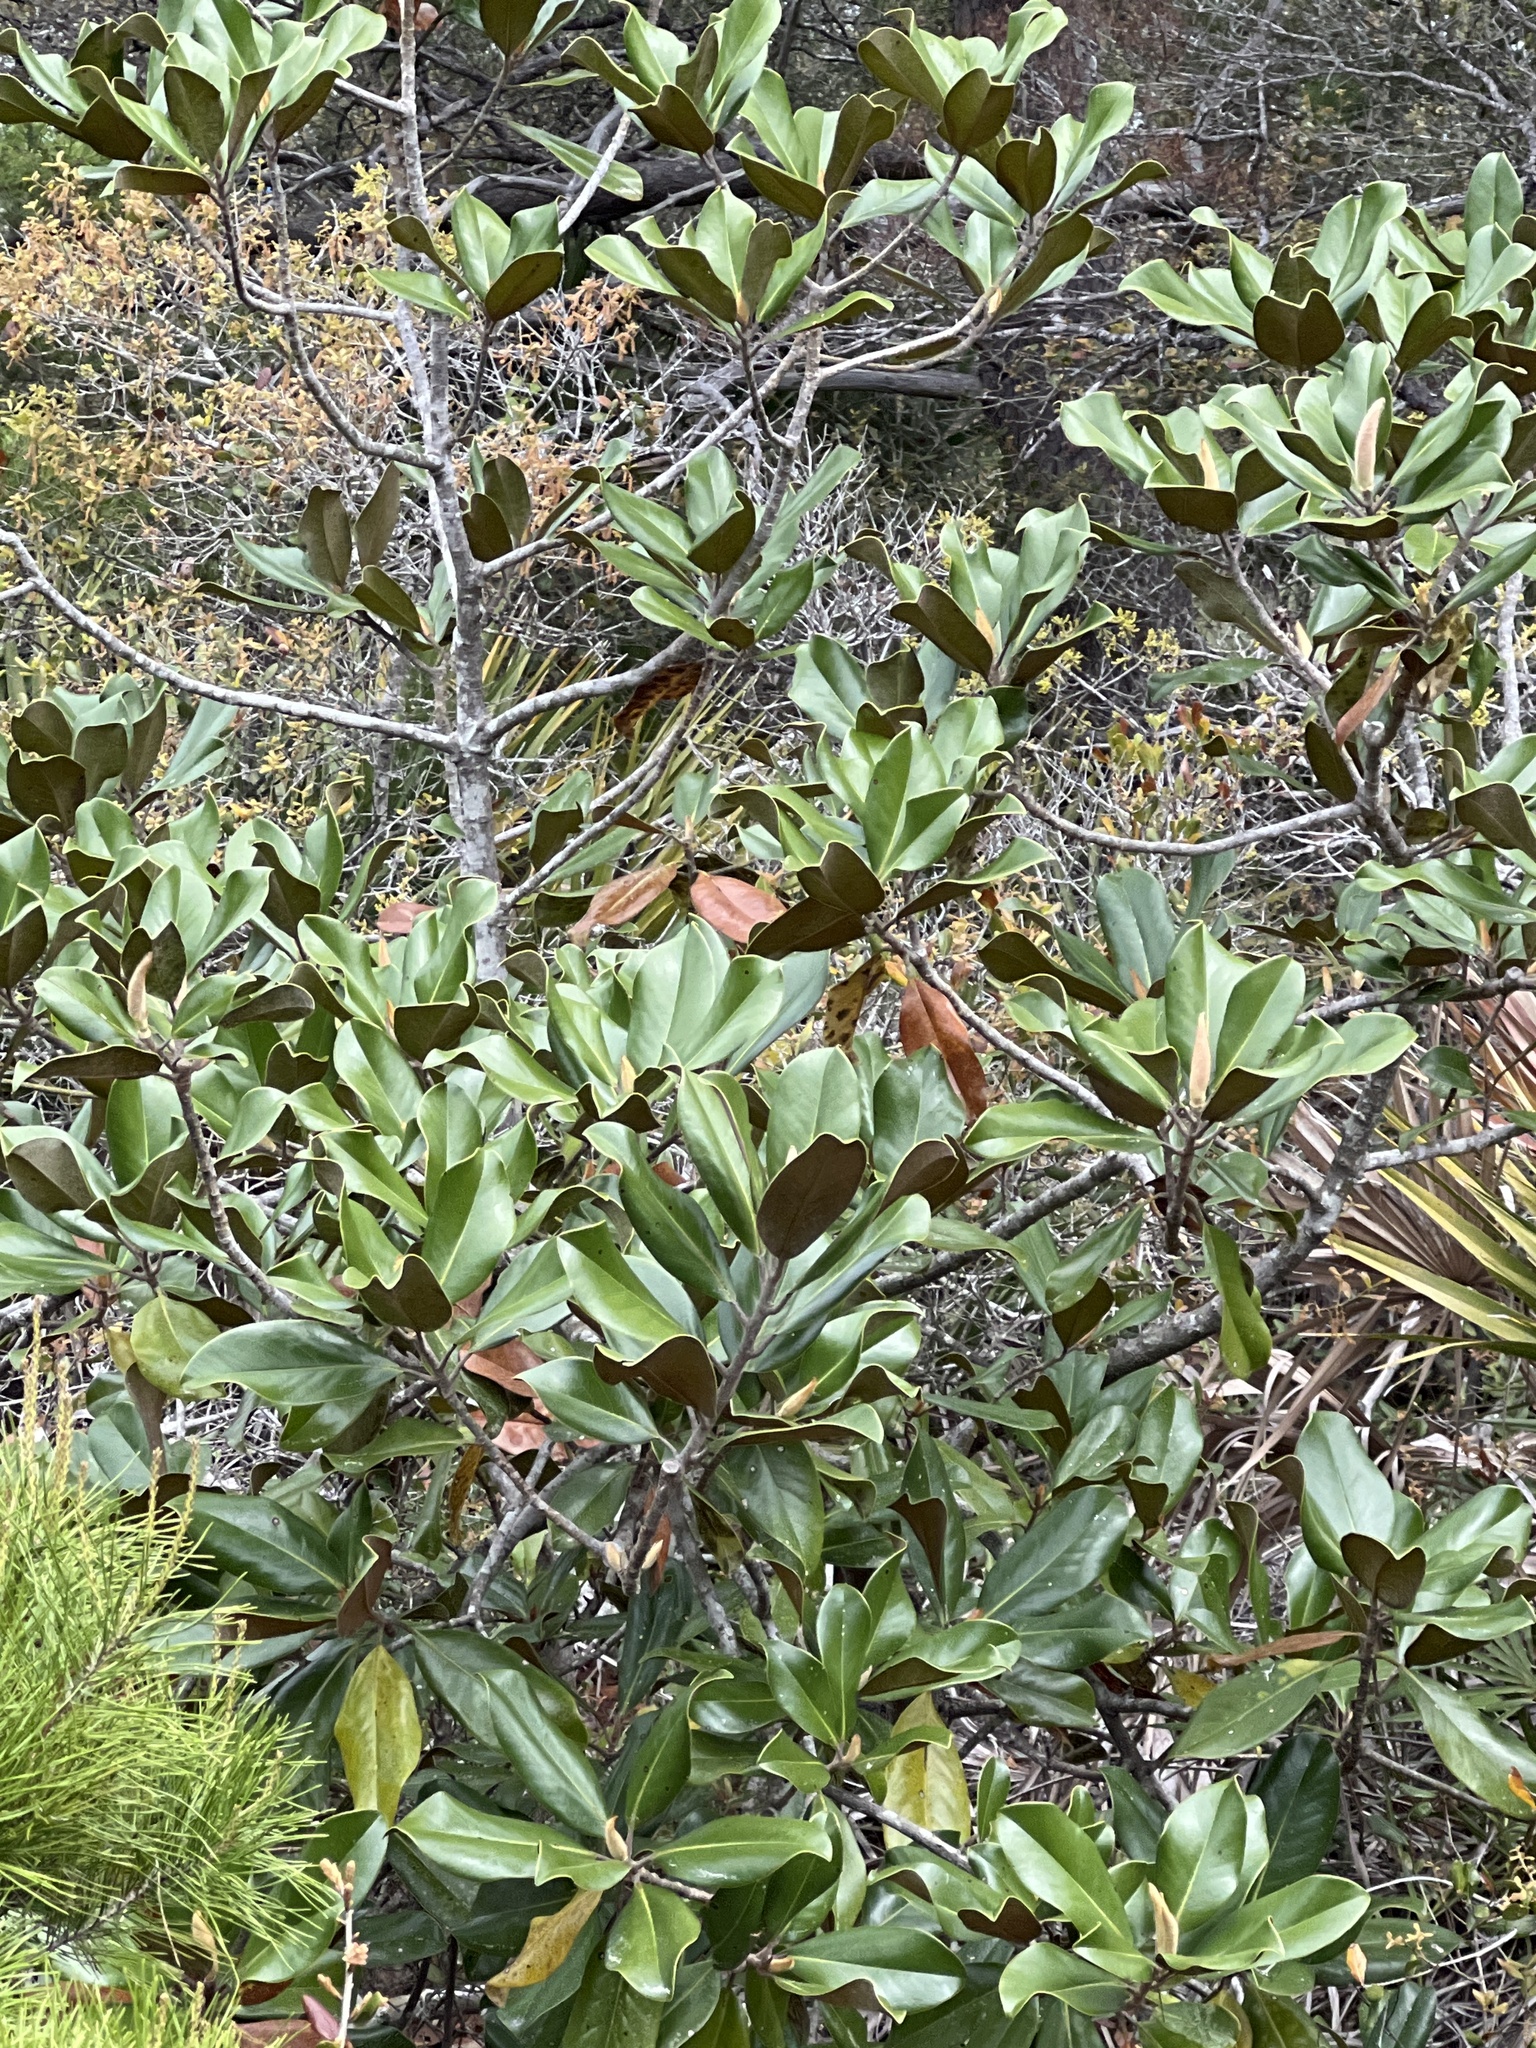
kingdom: Plantae
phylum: Tracheophyta
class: Magnoliopsida
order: Magnoliales
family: Magnoliaceae
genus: Magnolia
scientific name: Magnolia grandiflora
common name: Southern magnolia
